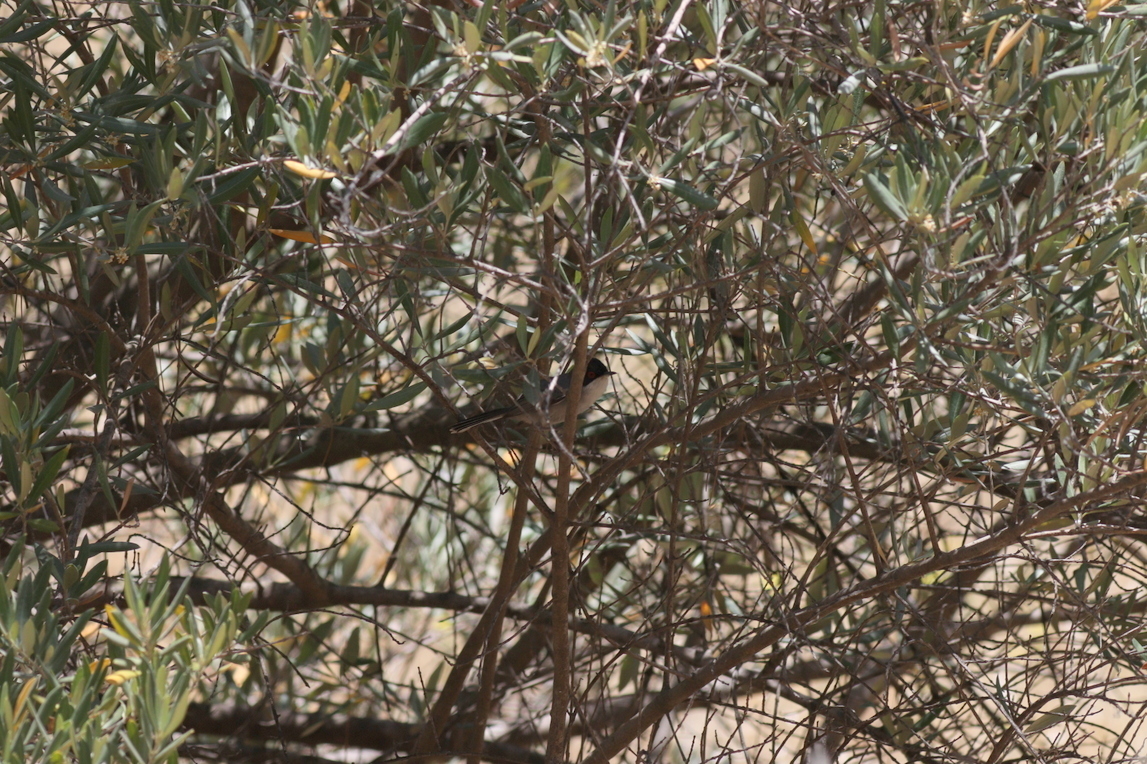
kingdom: Animalia
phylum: Chordata
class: Aves
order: Passeriformes
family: Sylviidae
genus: Curruca
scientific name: Curruca melanocephala
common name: Sardinian warbler
